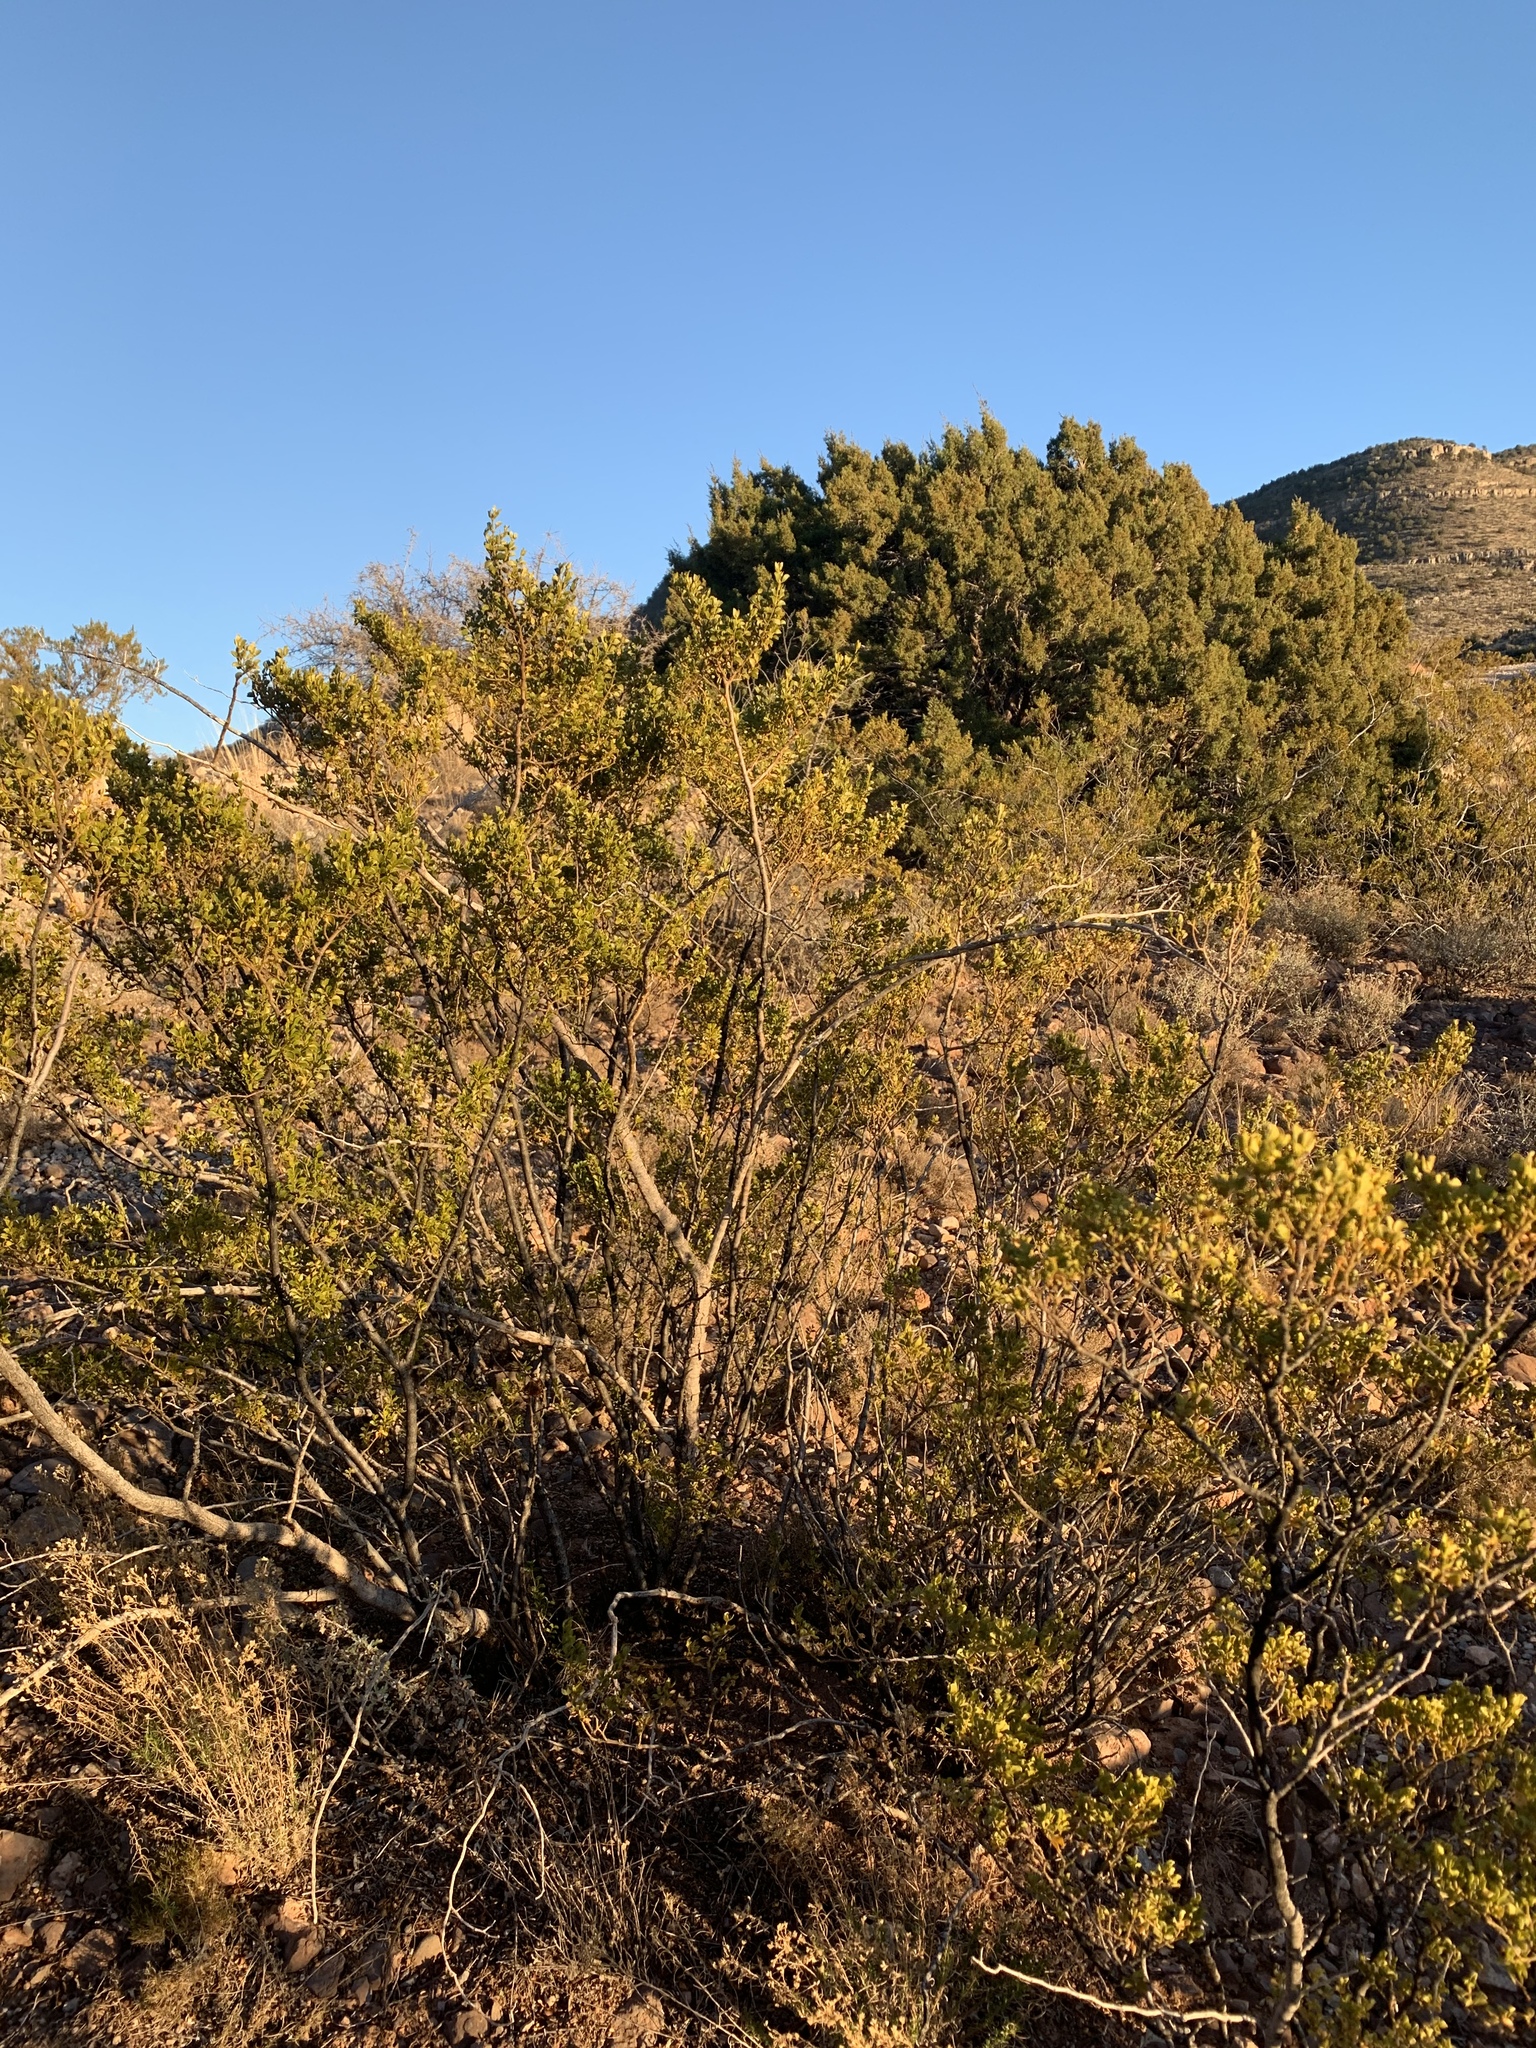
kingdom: Plantae
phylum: Tracheophyta
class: Magnoliopsida
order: Zygophyllales
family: Zygophyllaceae
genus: Larrea
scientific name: Larrea tridentata
